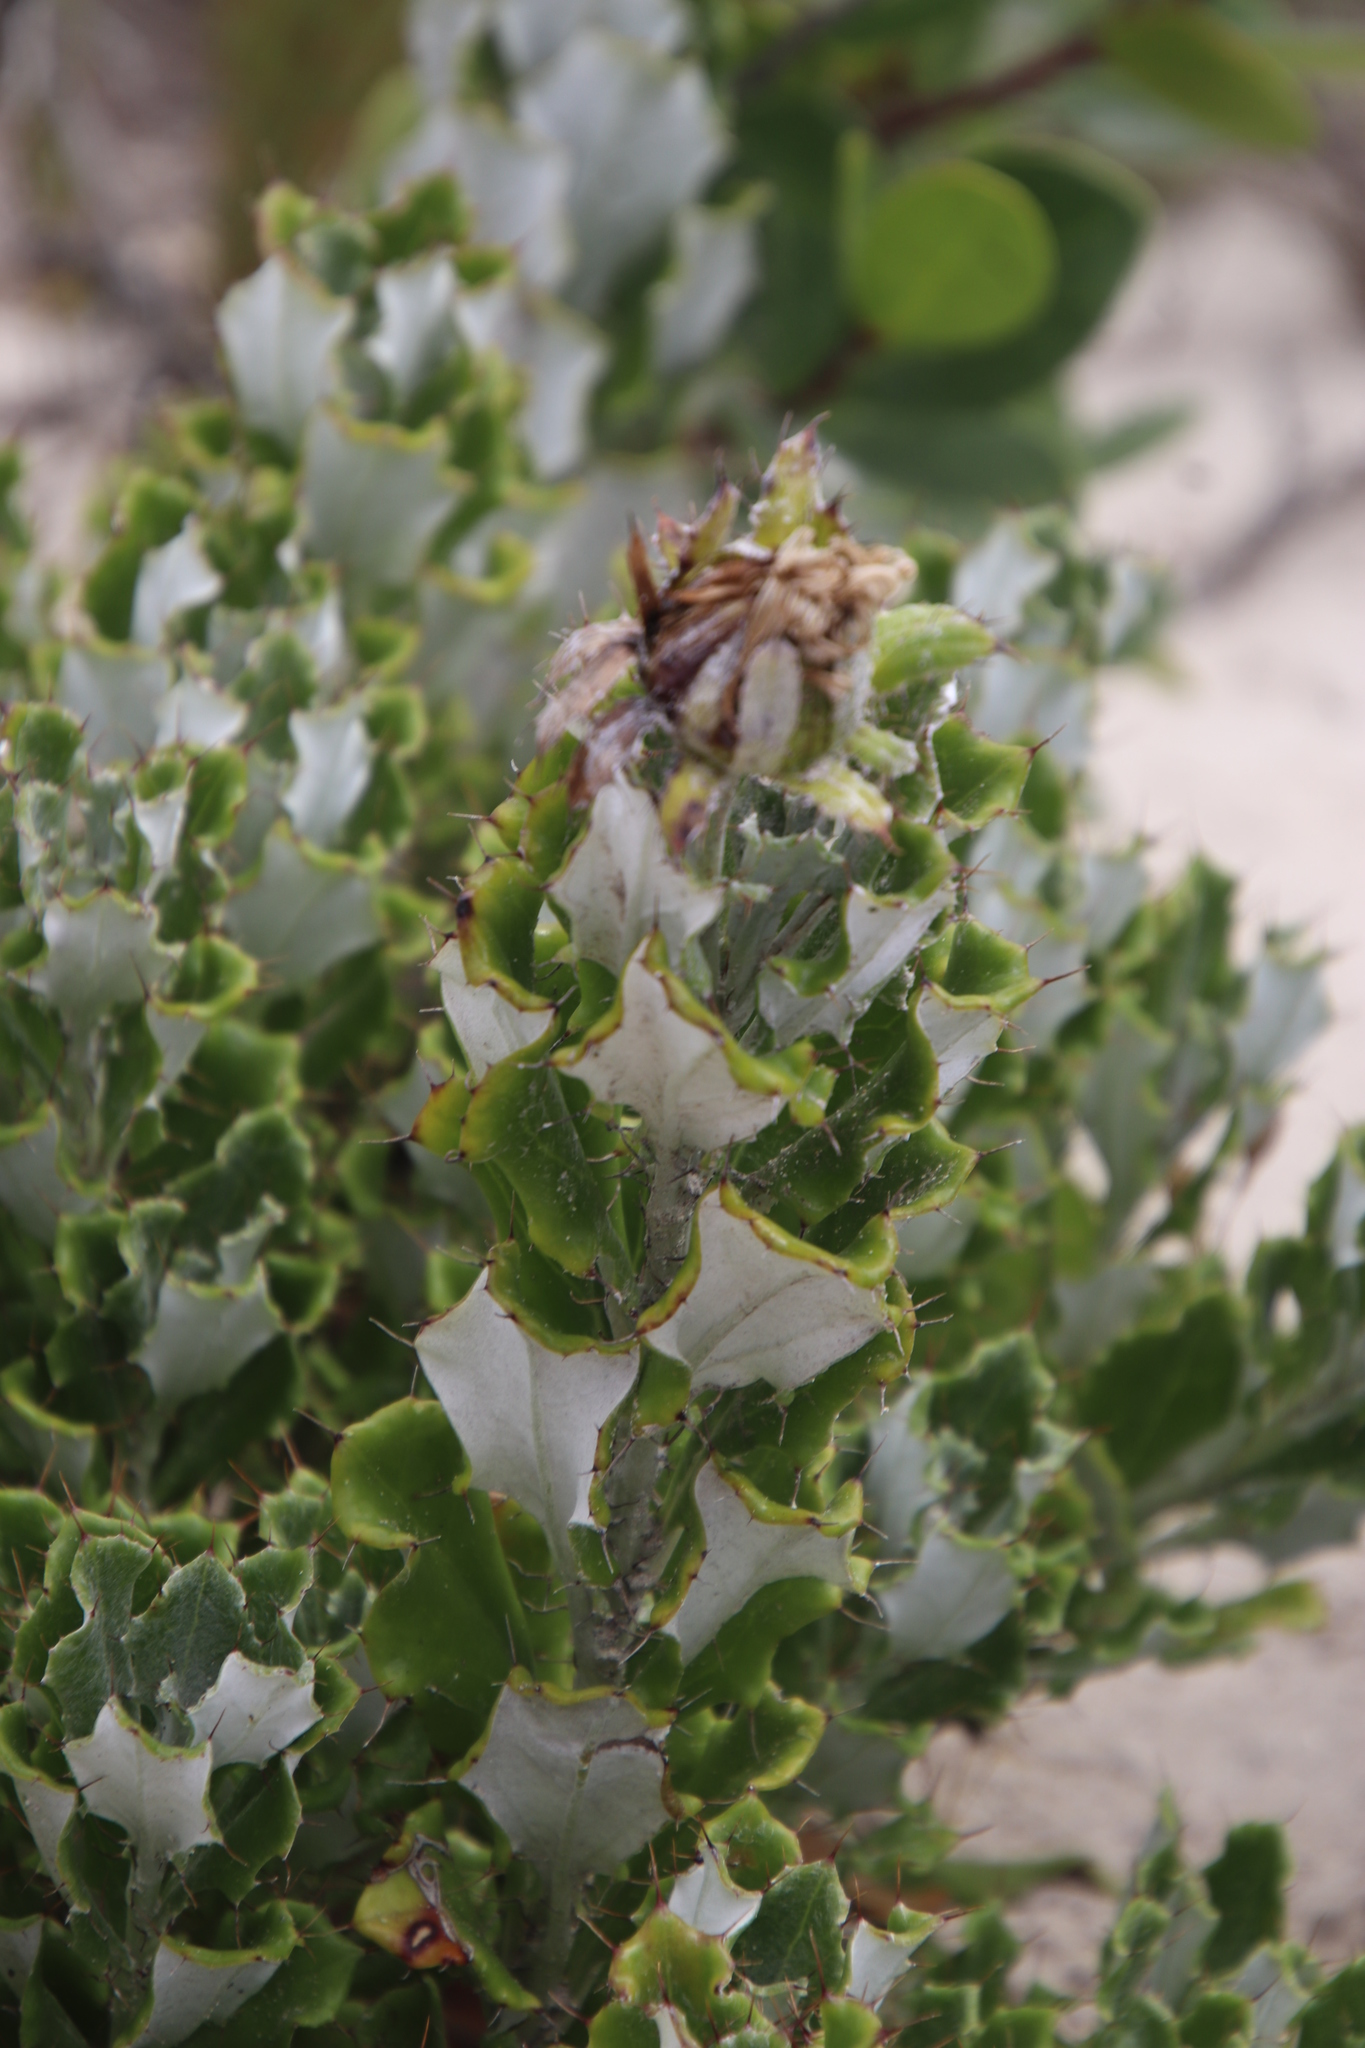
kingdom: Plantae
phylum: Tracheophyta
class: Magnoliopsida
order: Asterales
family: Asteraceae
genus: Berkheya
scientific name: Berkheya coriacea
